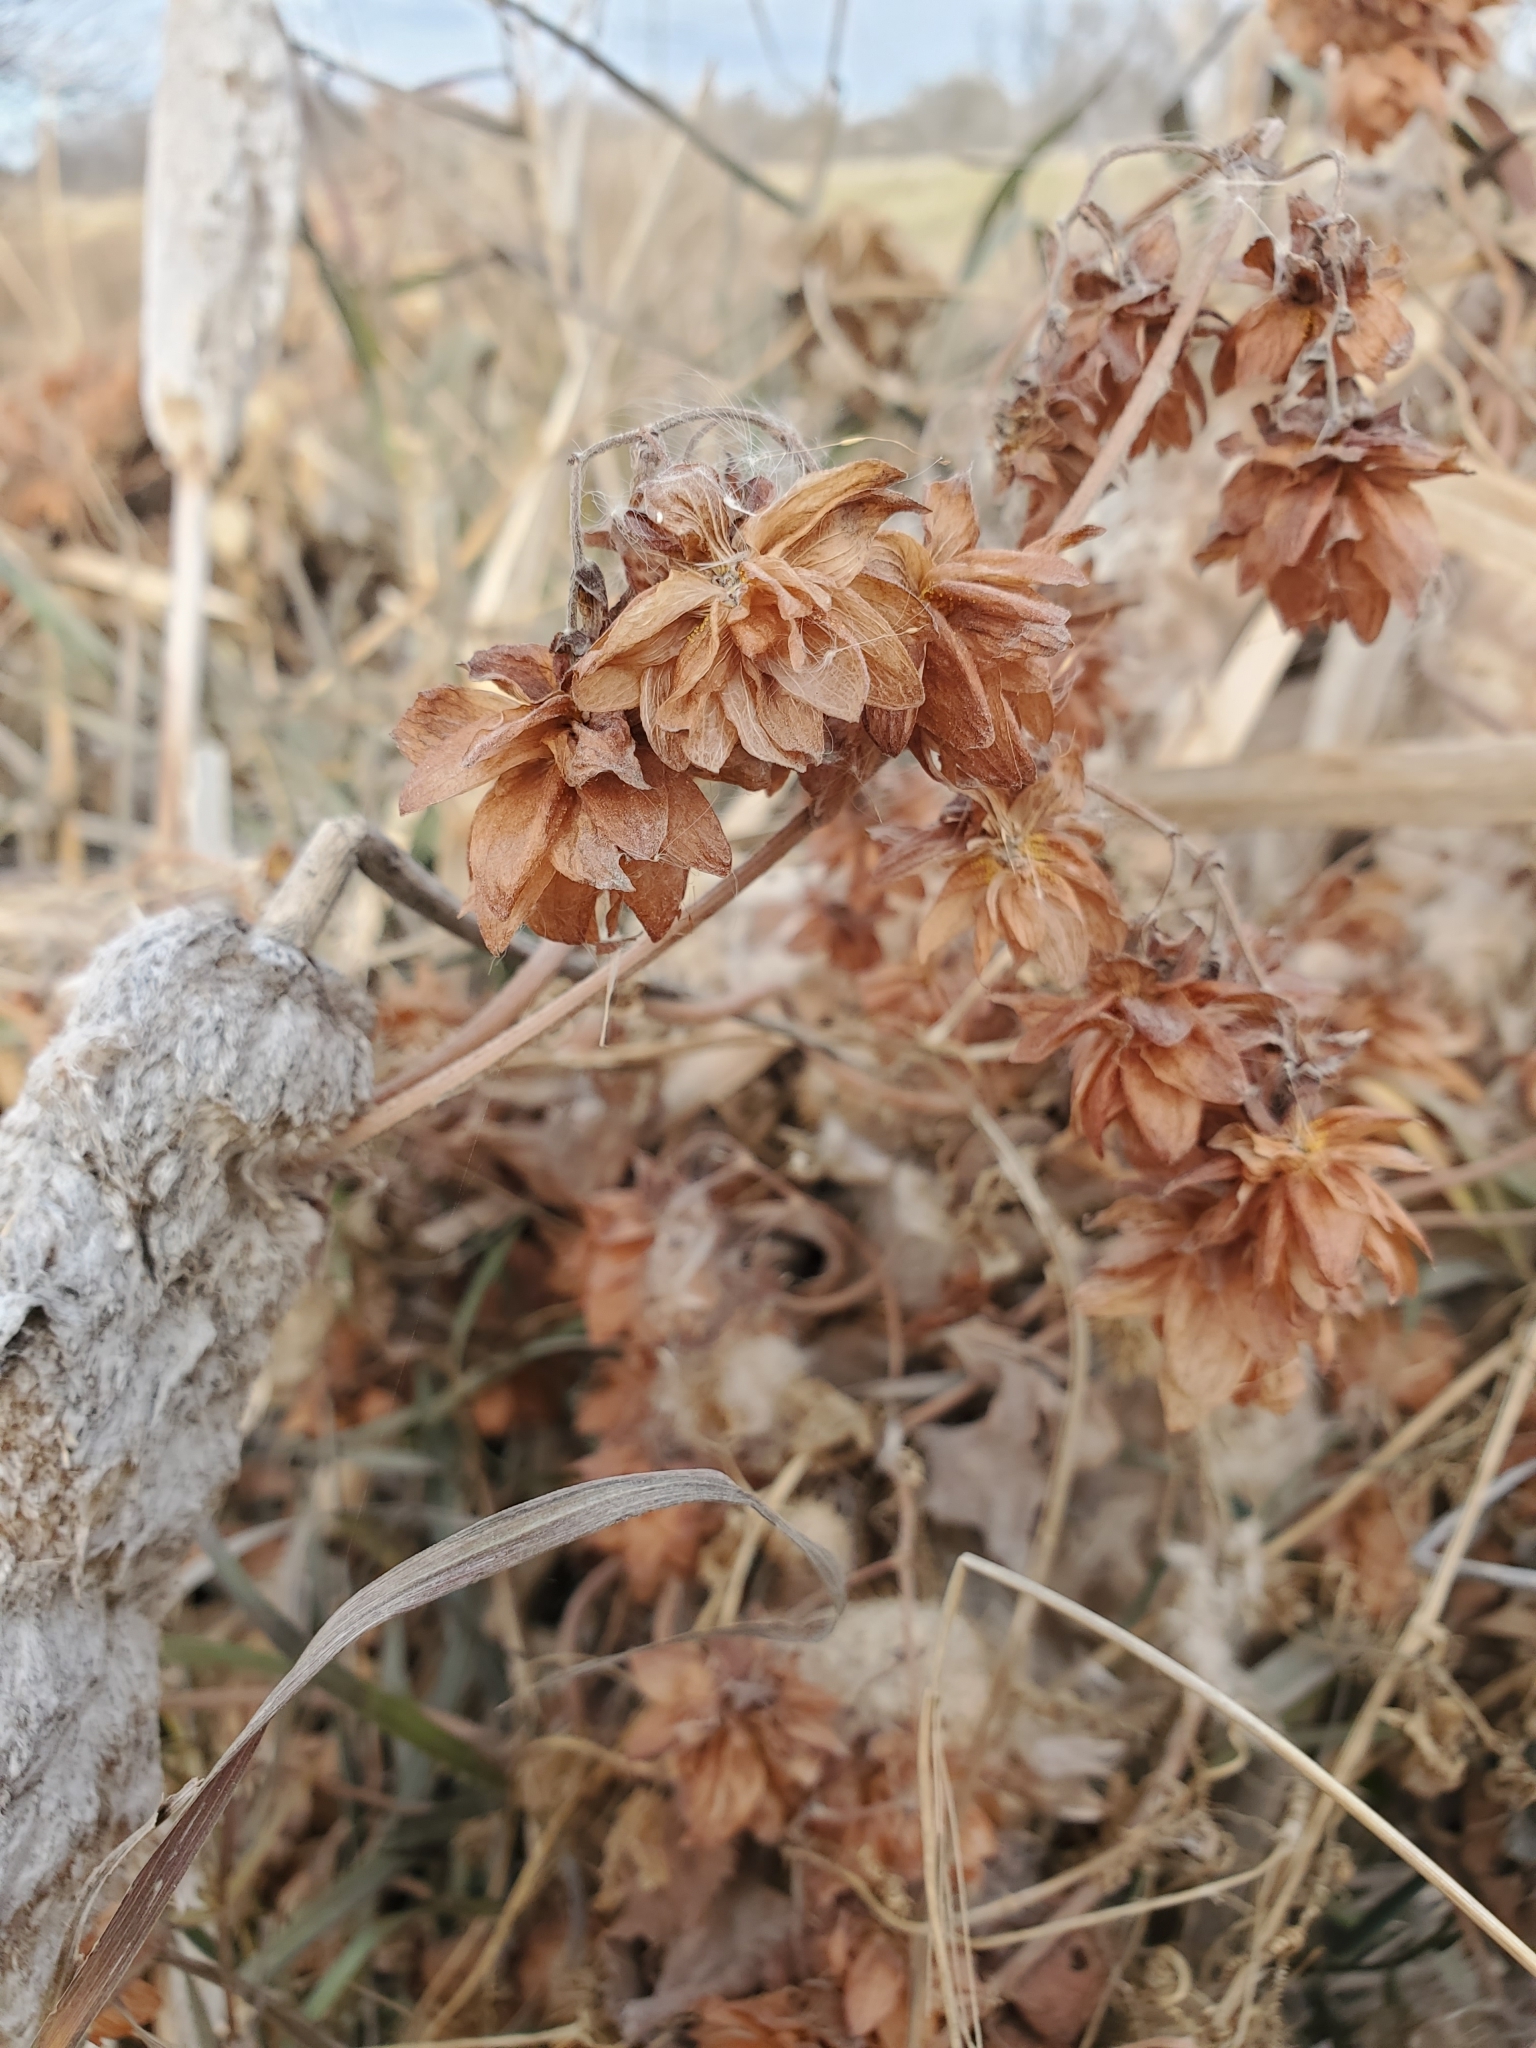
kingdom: Plantae
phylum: Tracheophyta
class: Magnoliopsida
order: Rosales
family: Cannabaceae
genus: Humulus
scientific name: Humulus lupulus
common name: Hop
